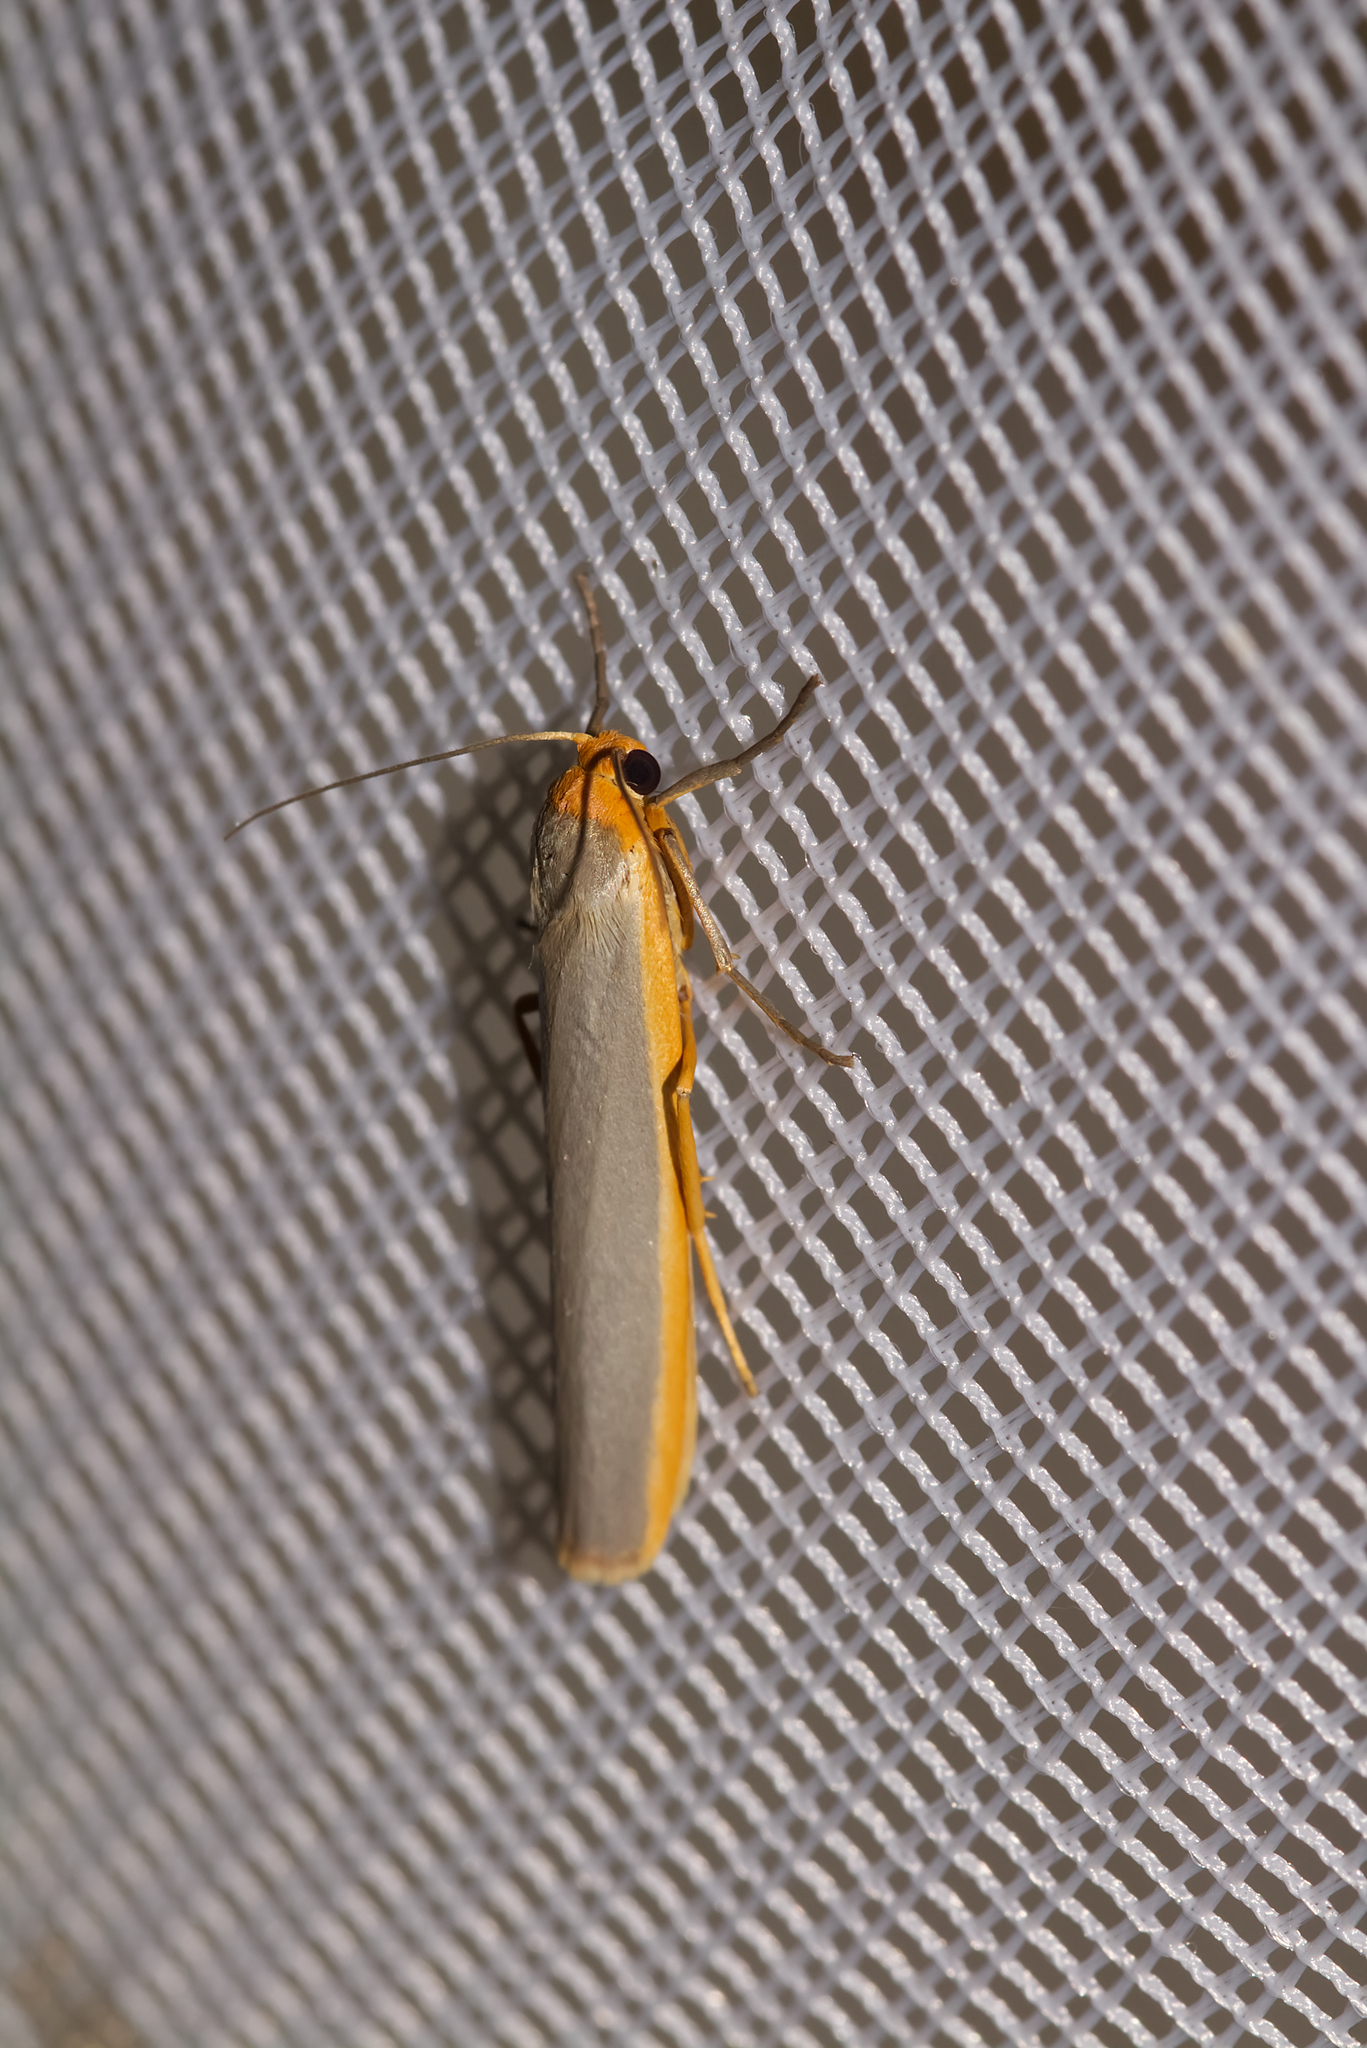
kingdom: Animalia
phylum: Arthropoda
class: Insecta
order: Lepidoptera
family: Erebidae
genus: Manulea
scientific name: Manulea complana
